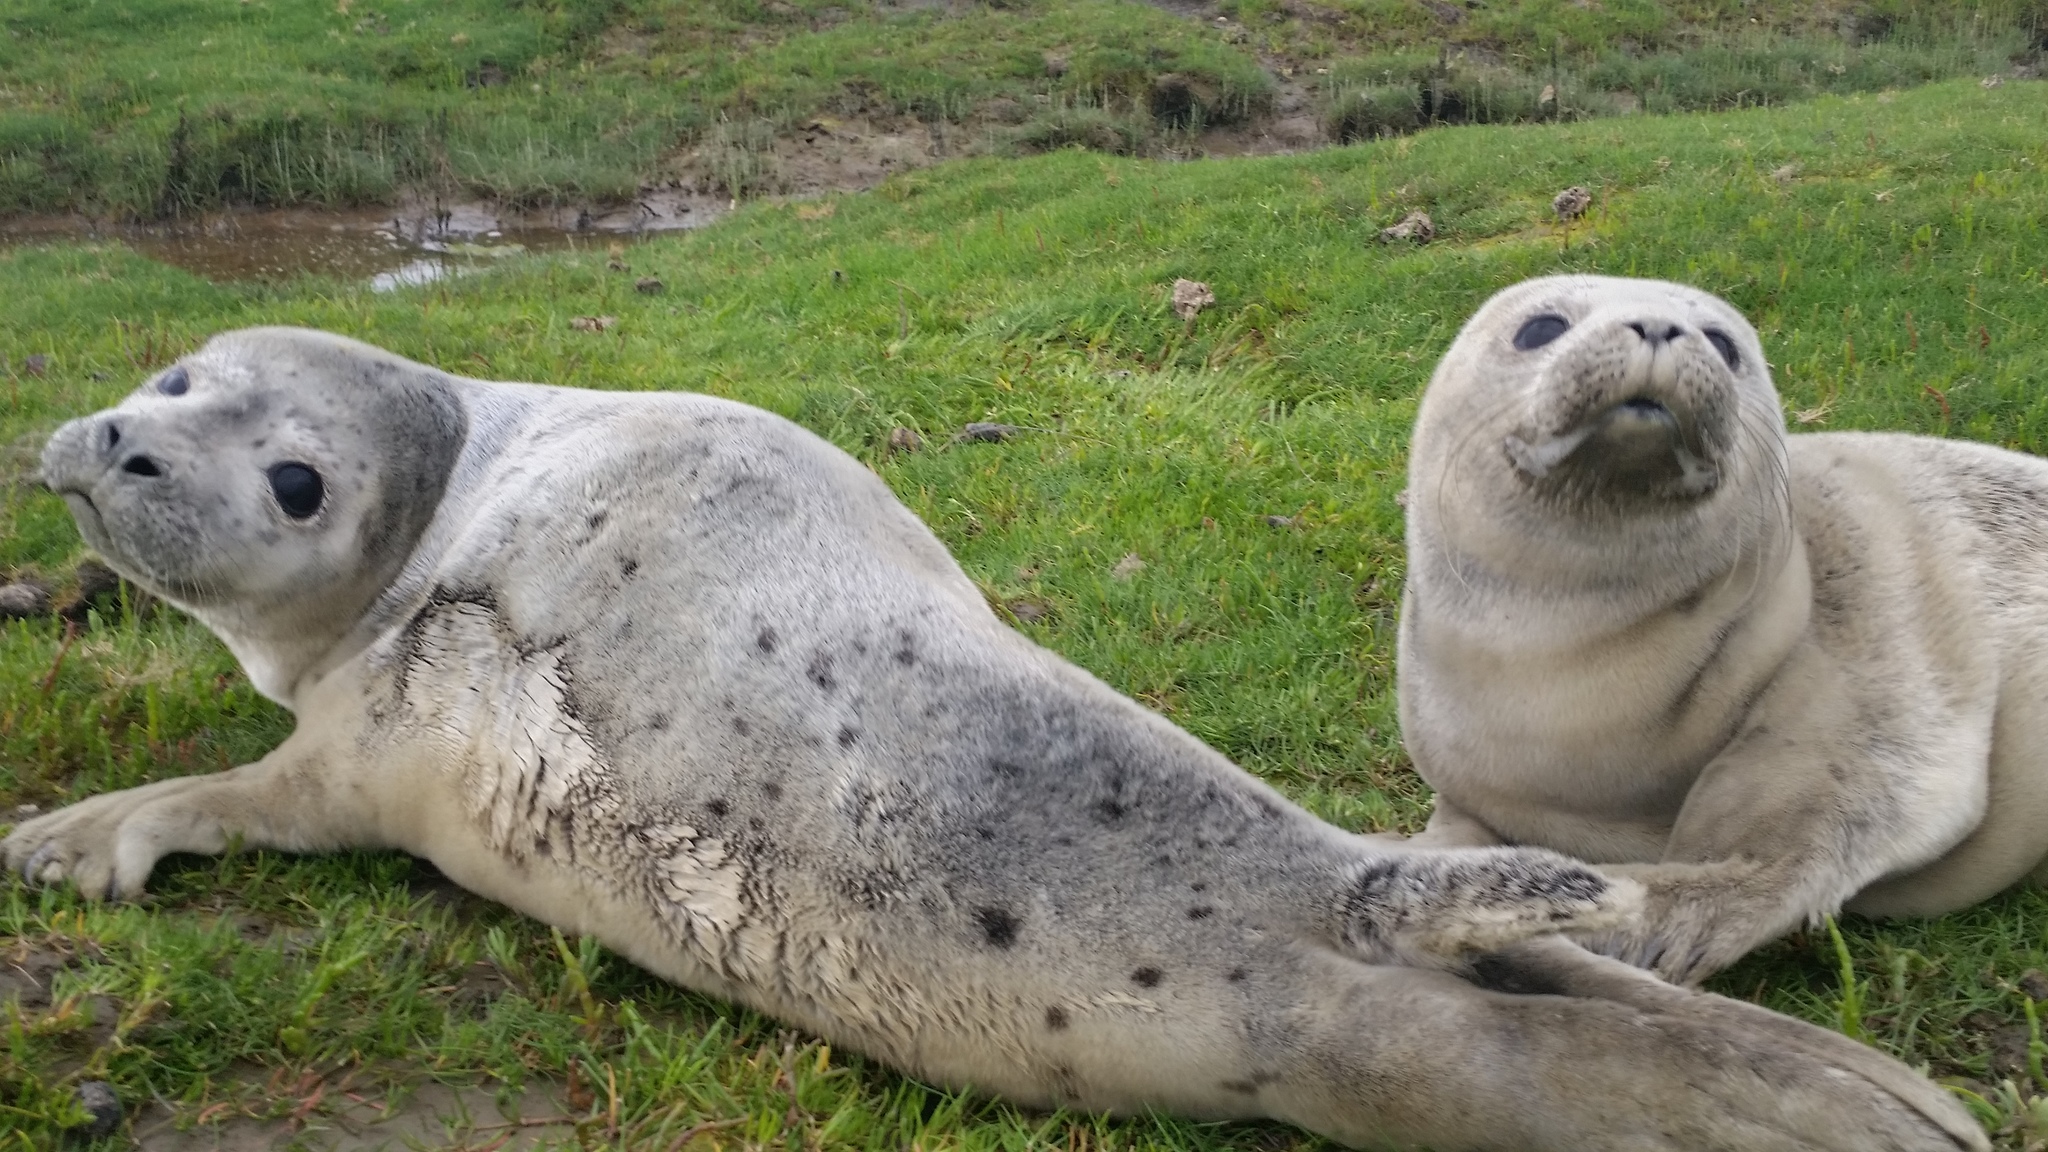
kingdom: Animalia
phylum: Chordata
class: Mammalia
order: Carnivora
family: Phocidae
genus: Phoca
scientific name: Phoca vitulina
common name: Harbor seal
